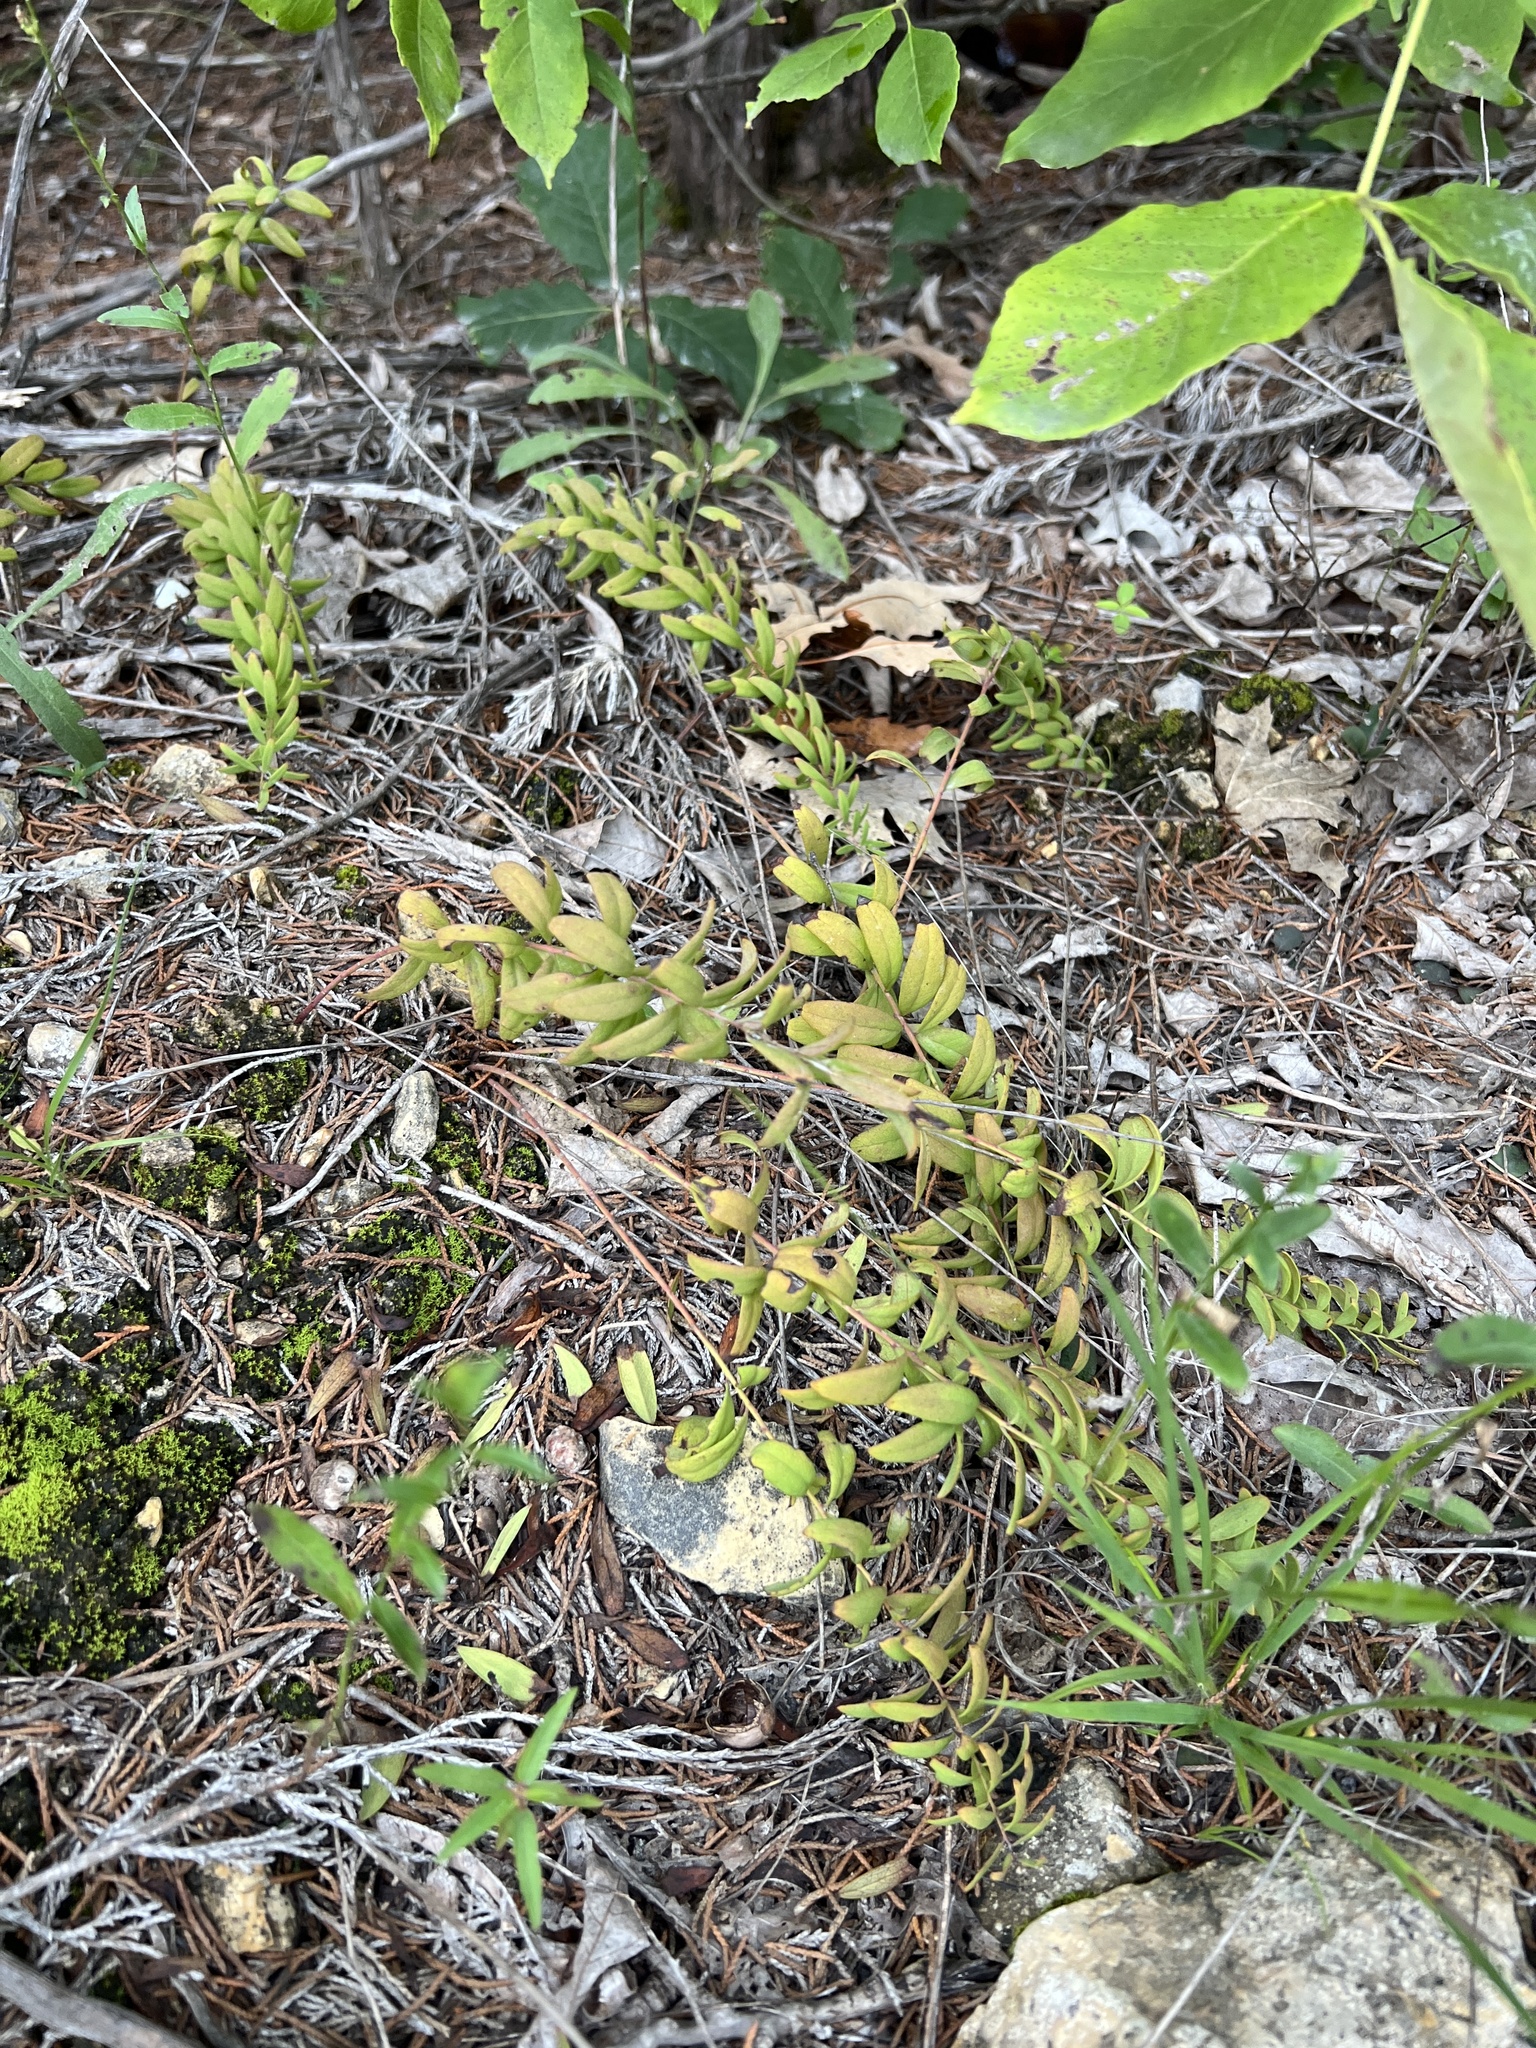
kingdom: Plantae
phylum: Tracheophyta
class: Magnoliopsida
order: Santalales
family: Comandraceae
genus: Comandra
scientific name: Comandra umbellata
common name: Bastard toadflax
